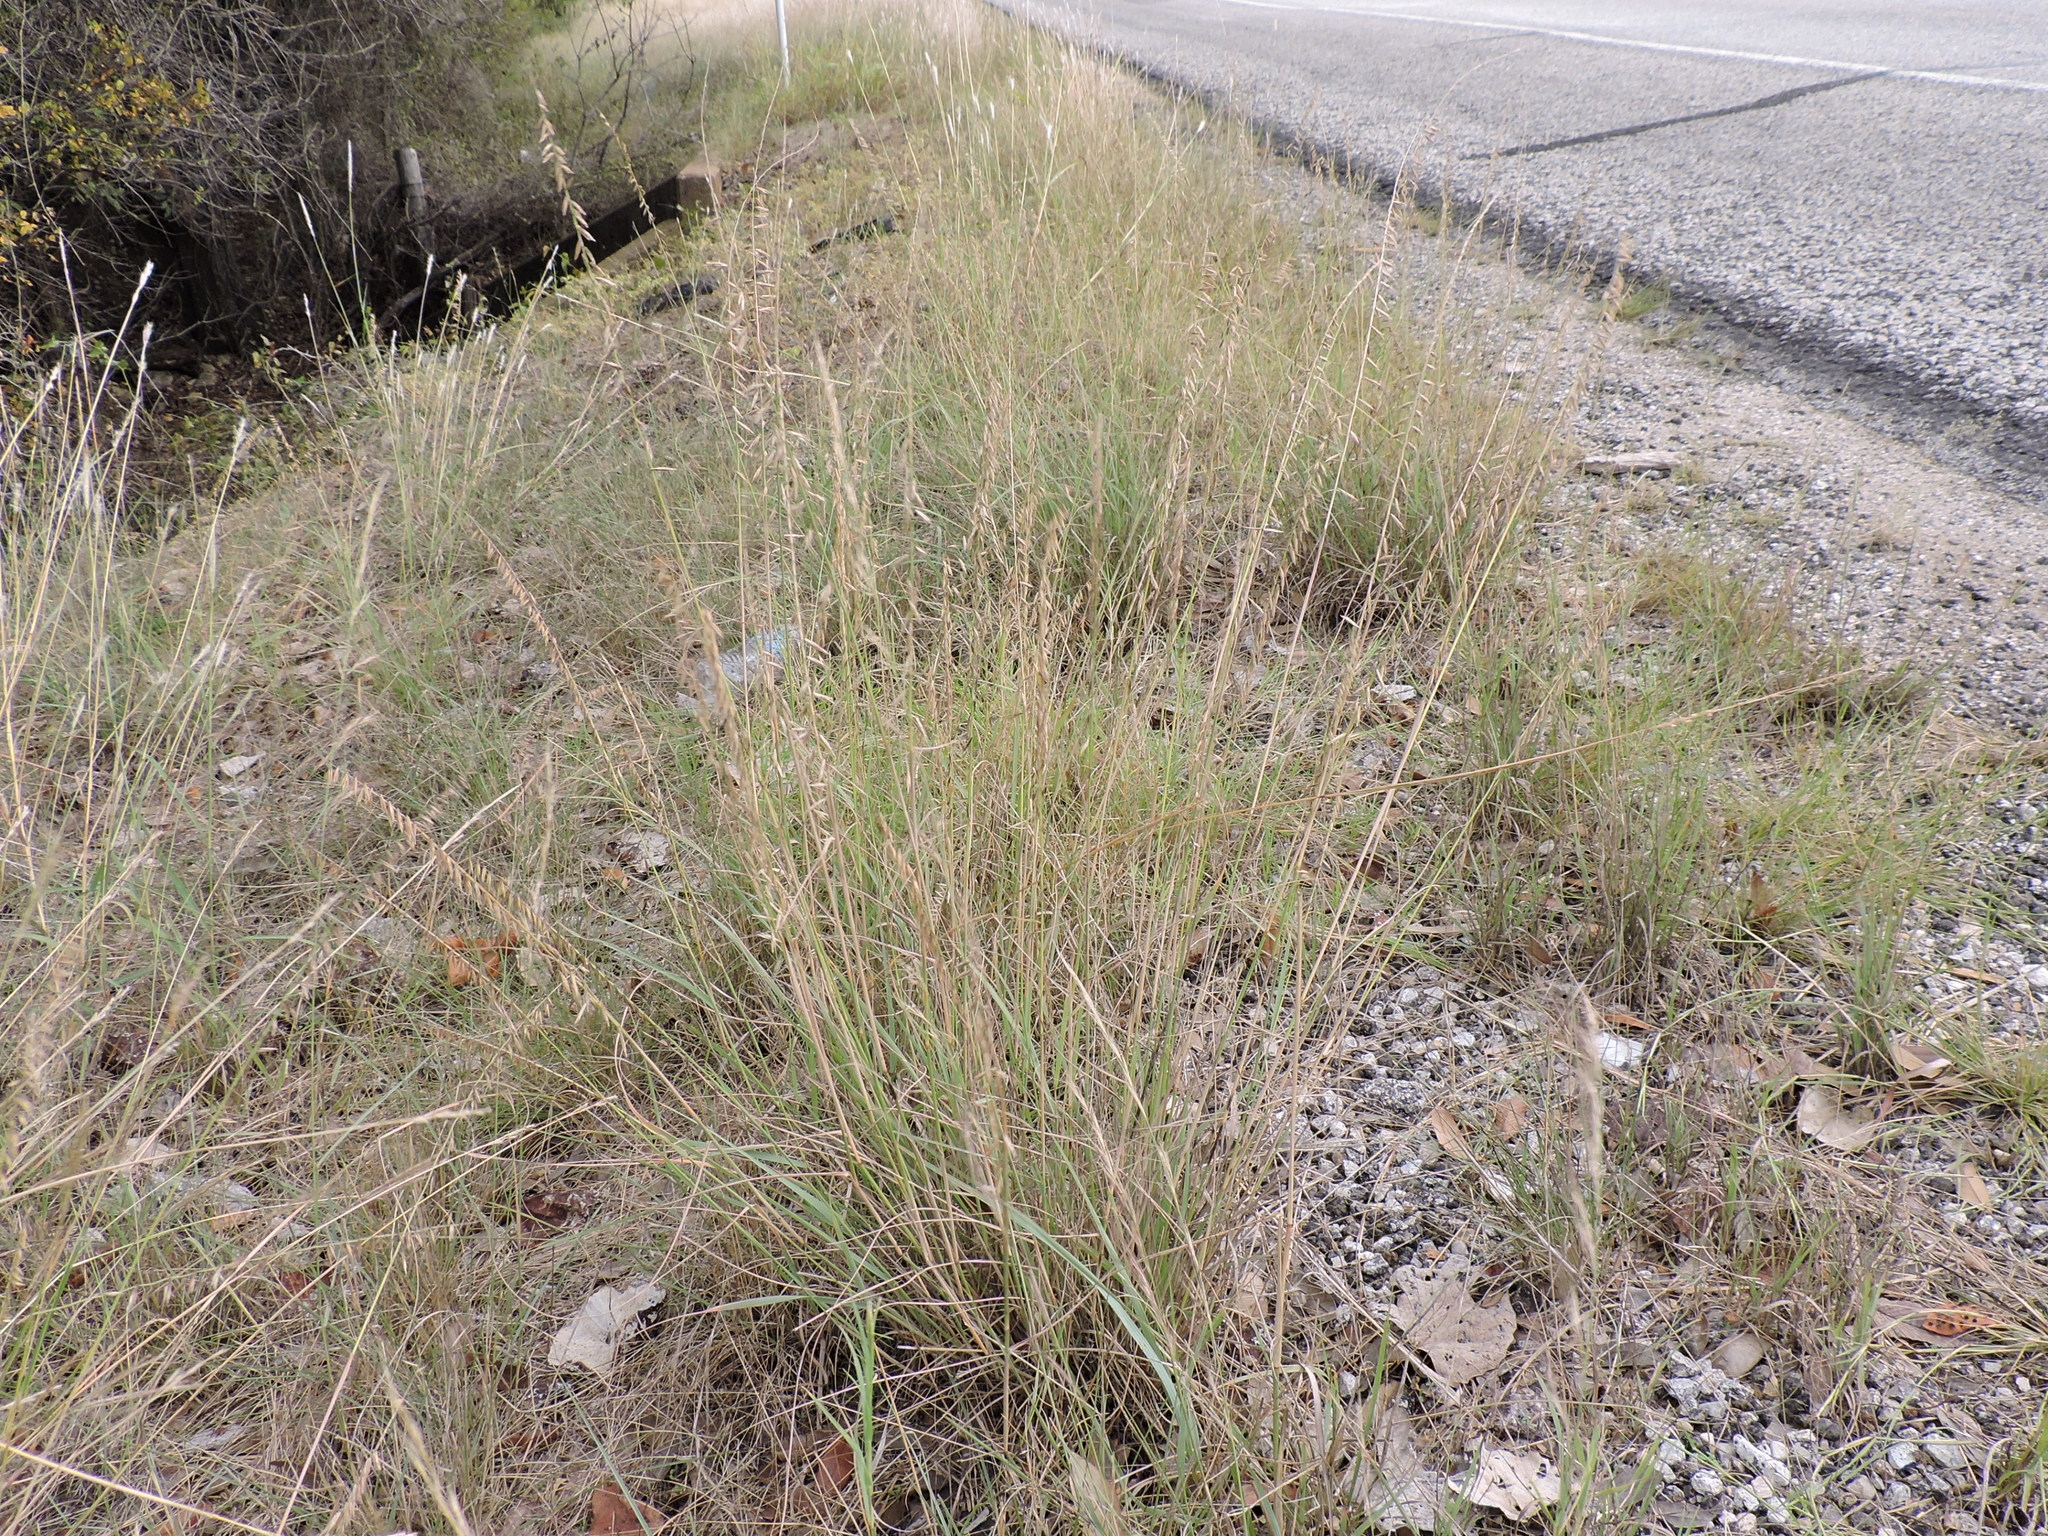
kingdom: Plantae
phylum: Tracheophyta
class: Liliopsida
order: Poales
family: Poaceae
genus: Bouteloua
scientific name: Bouteloua curtipendula
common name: Side-oats grama
